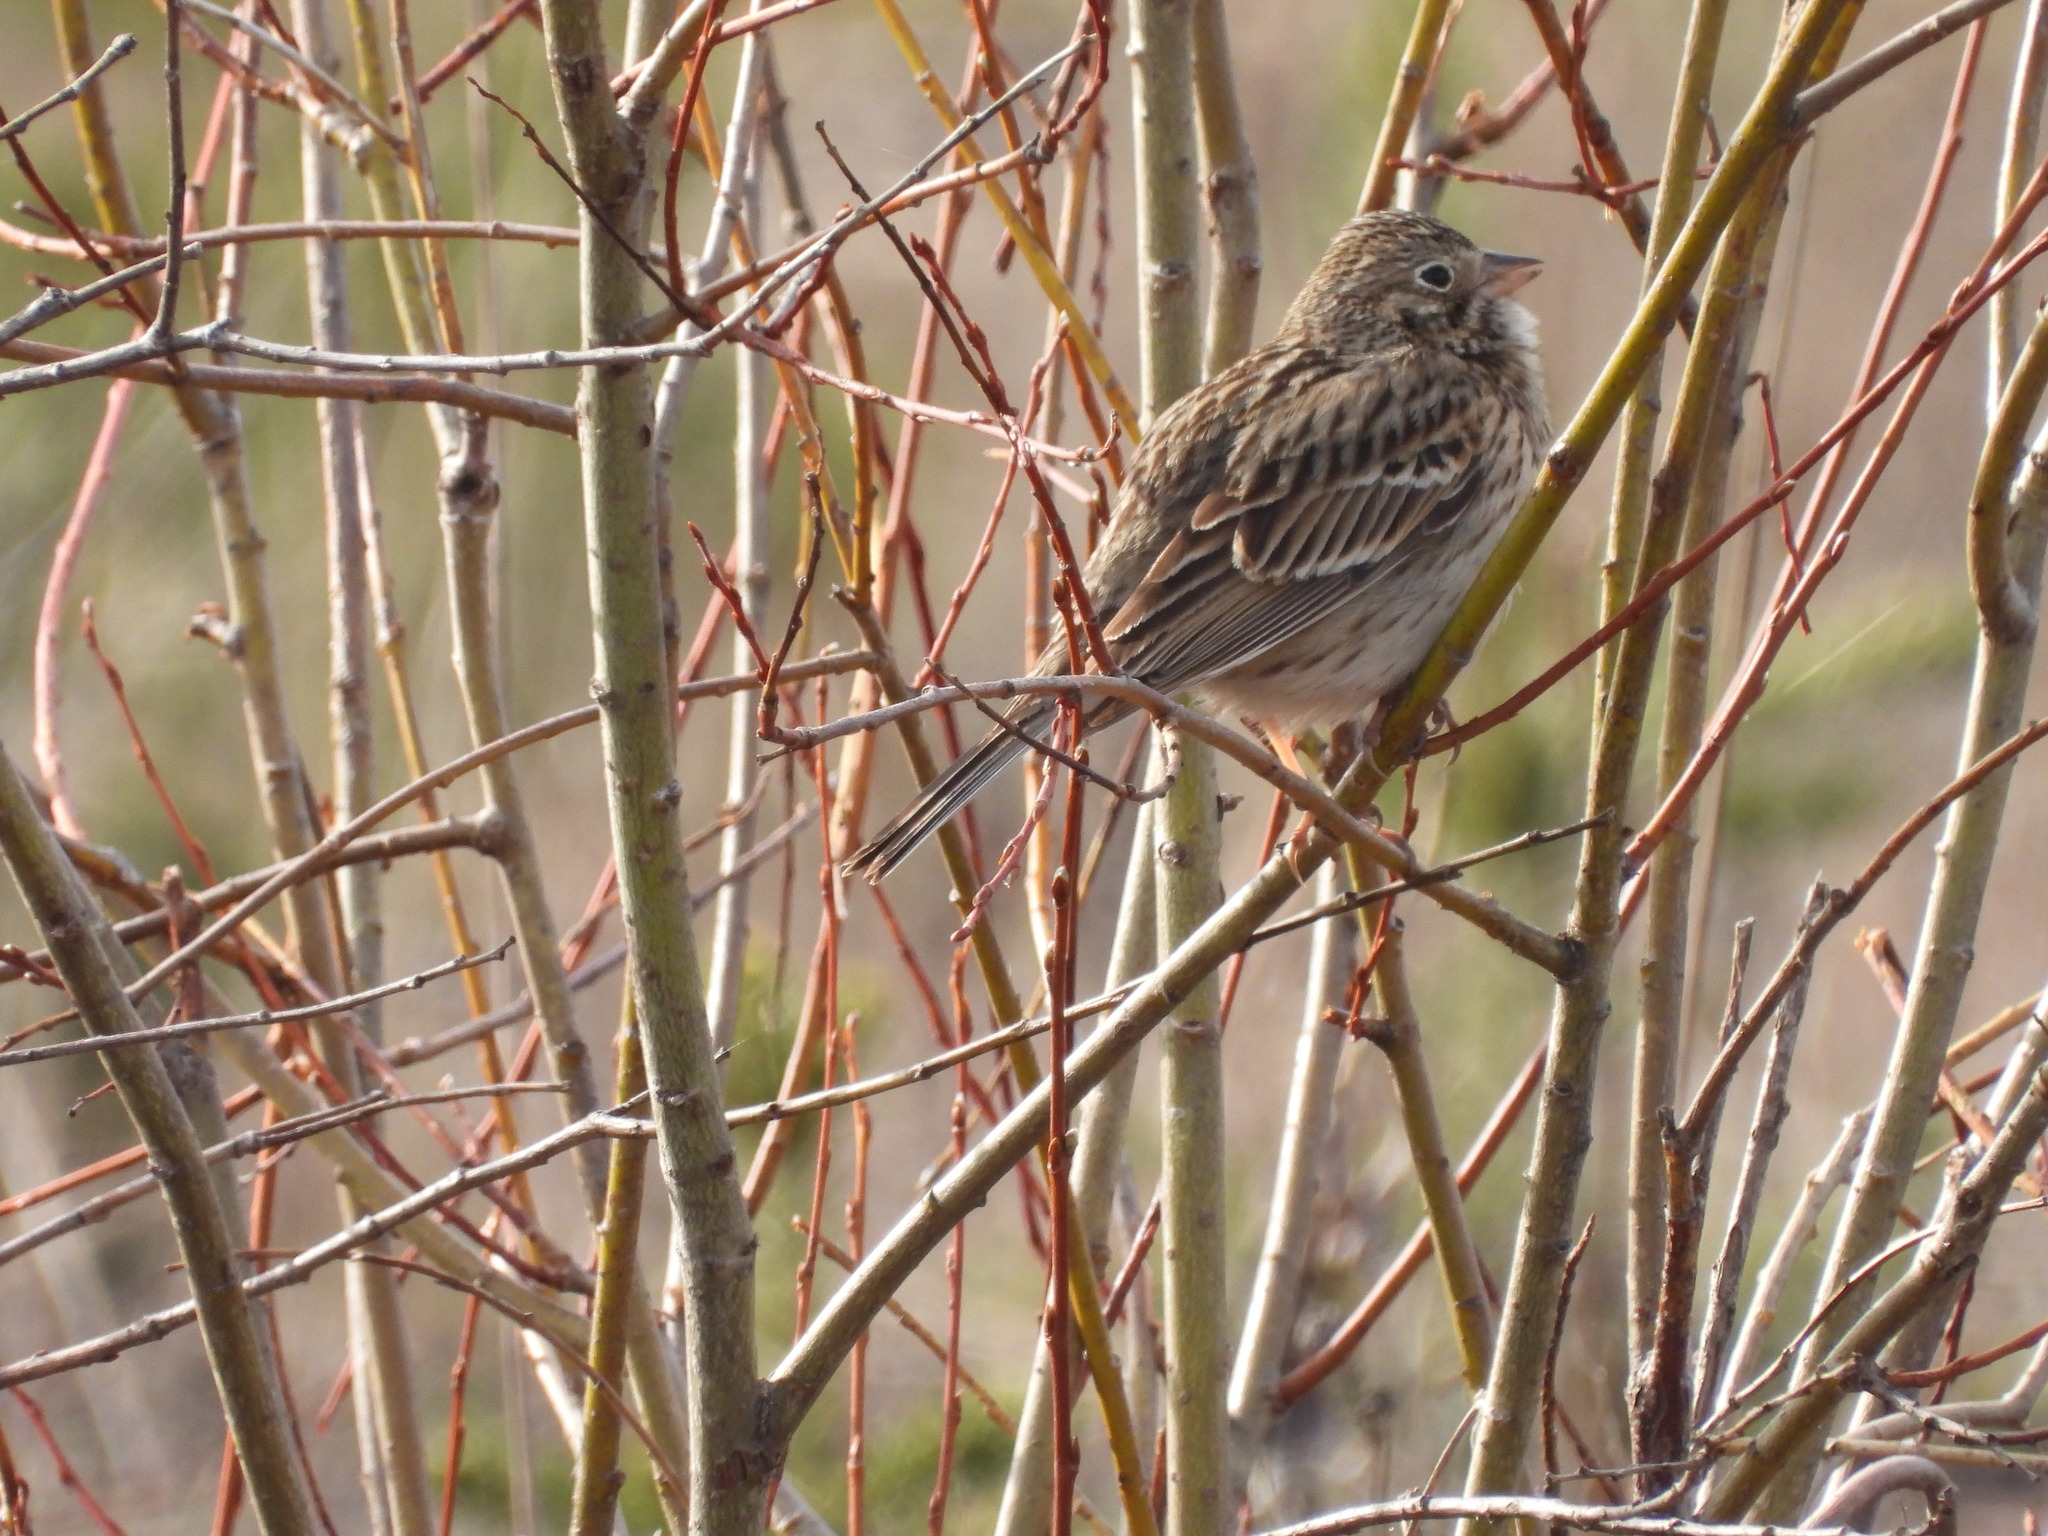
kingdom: Animalia
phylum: Chordata
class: Aves
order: Passeriformes
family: Passerellidae
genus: Pooecetes
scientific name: Pooecetes gramineus
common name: Vesper sparrow
